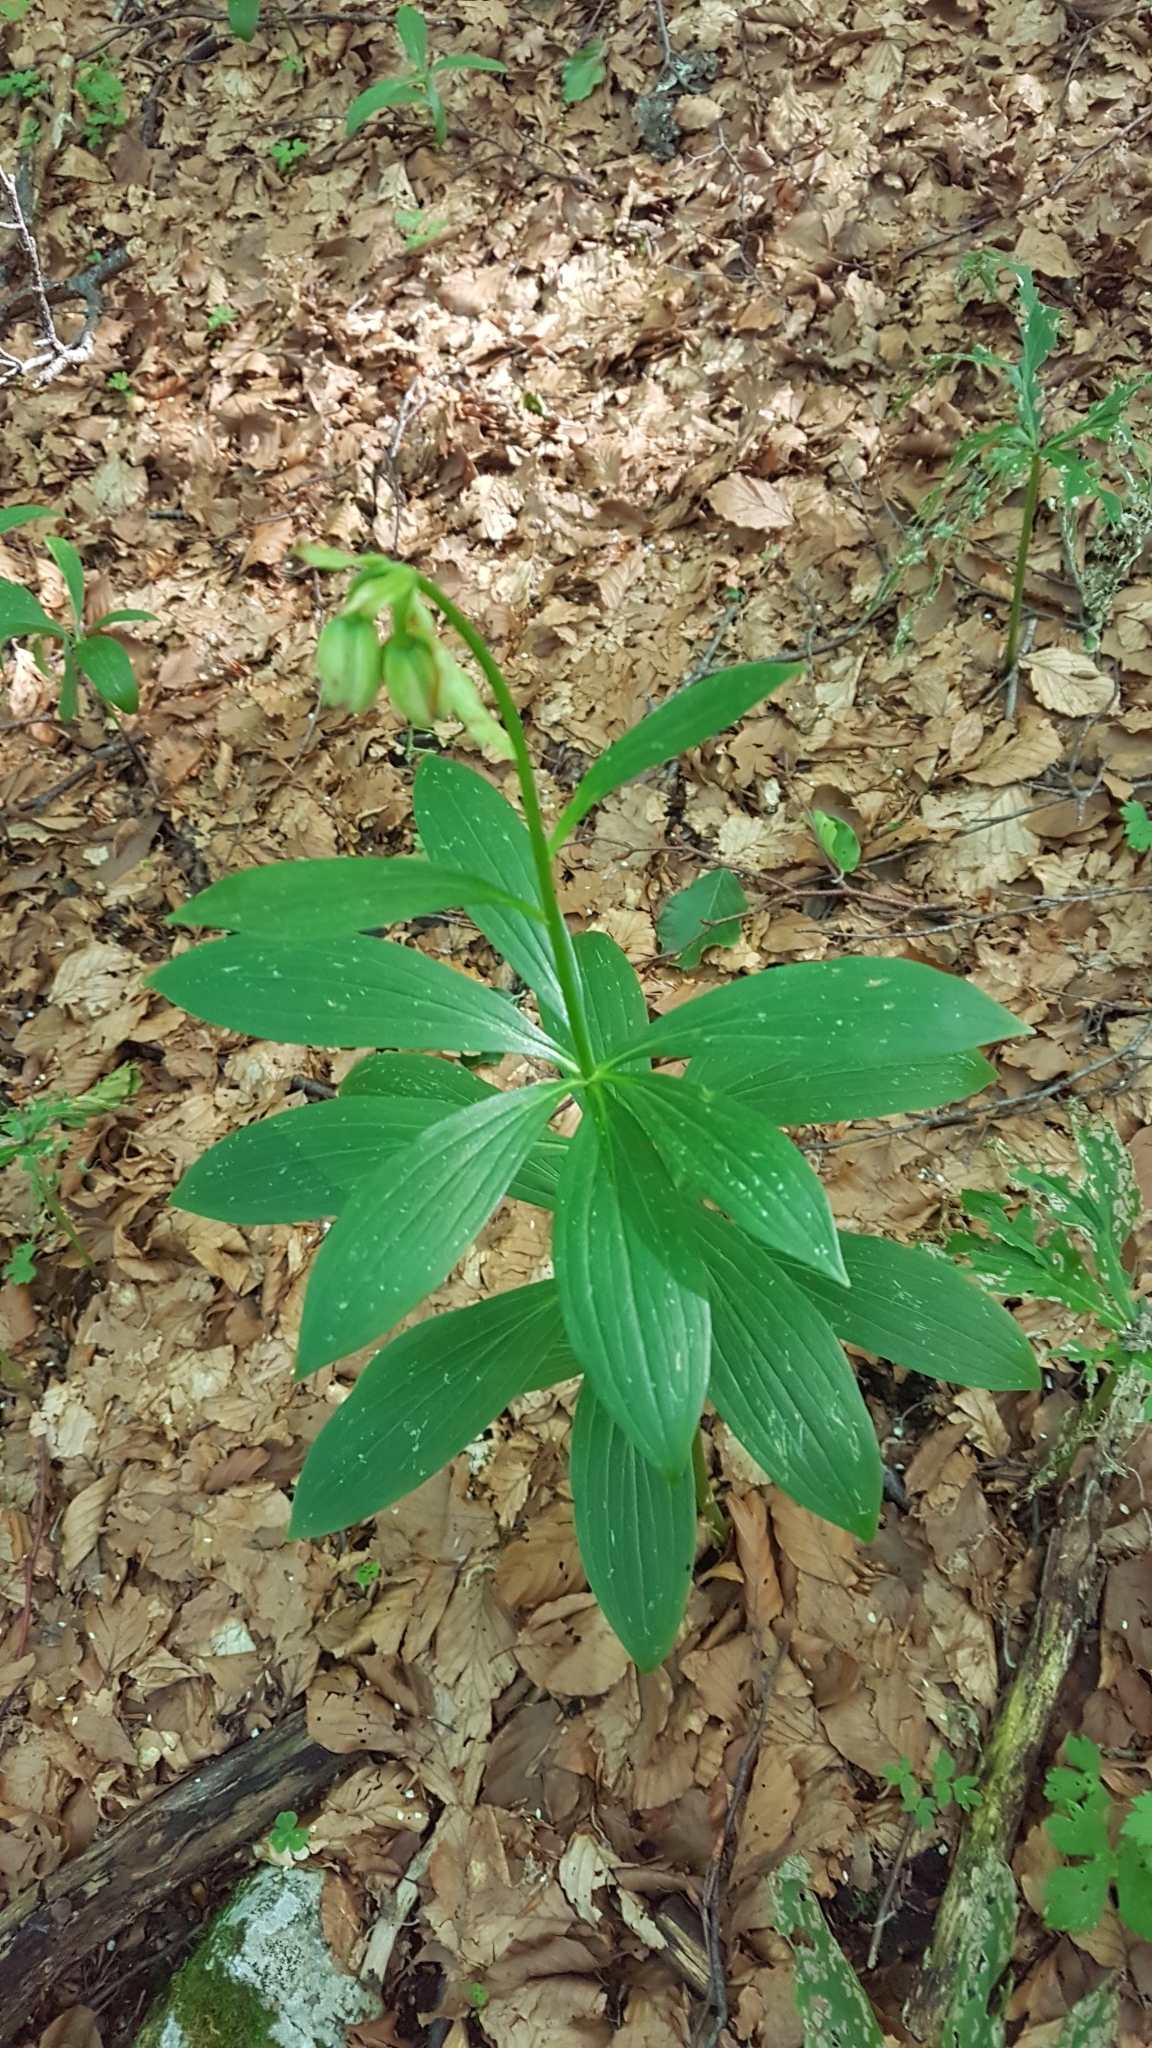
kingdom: Plantae
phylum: Tracheophyta
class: Liliopsida
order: Liliales
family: Liliaceae
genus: Lilium
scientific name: Lilium martagon
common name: Martagon lily
